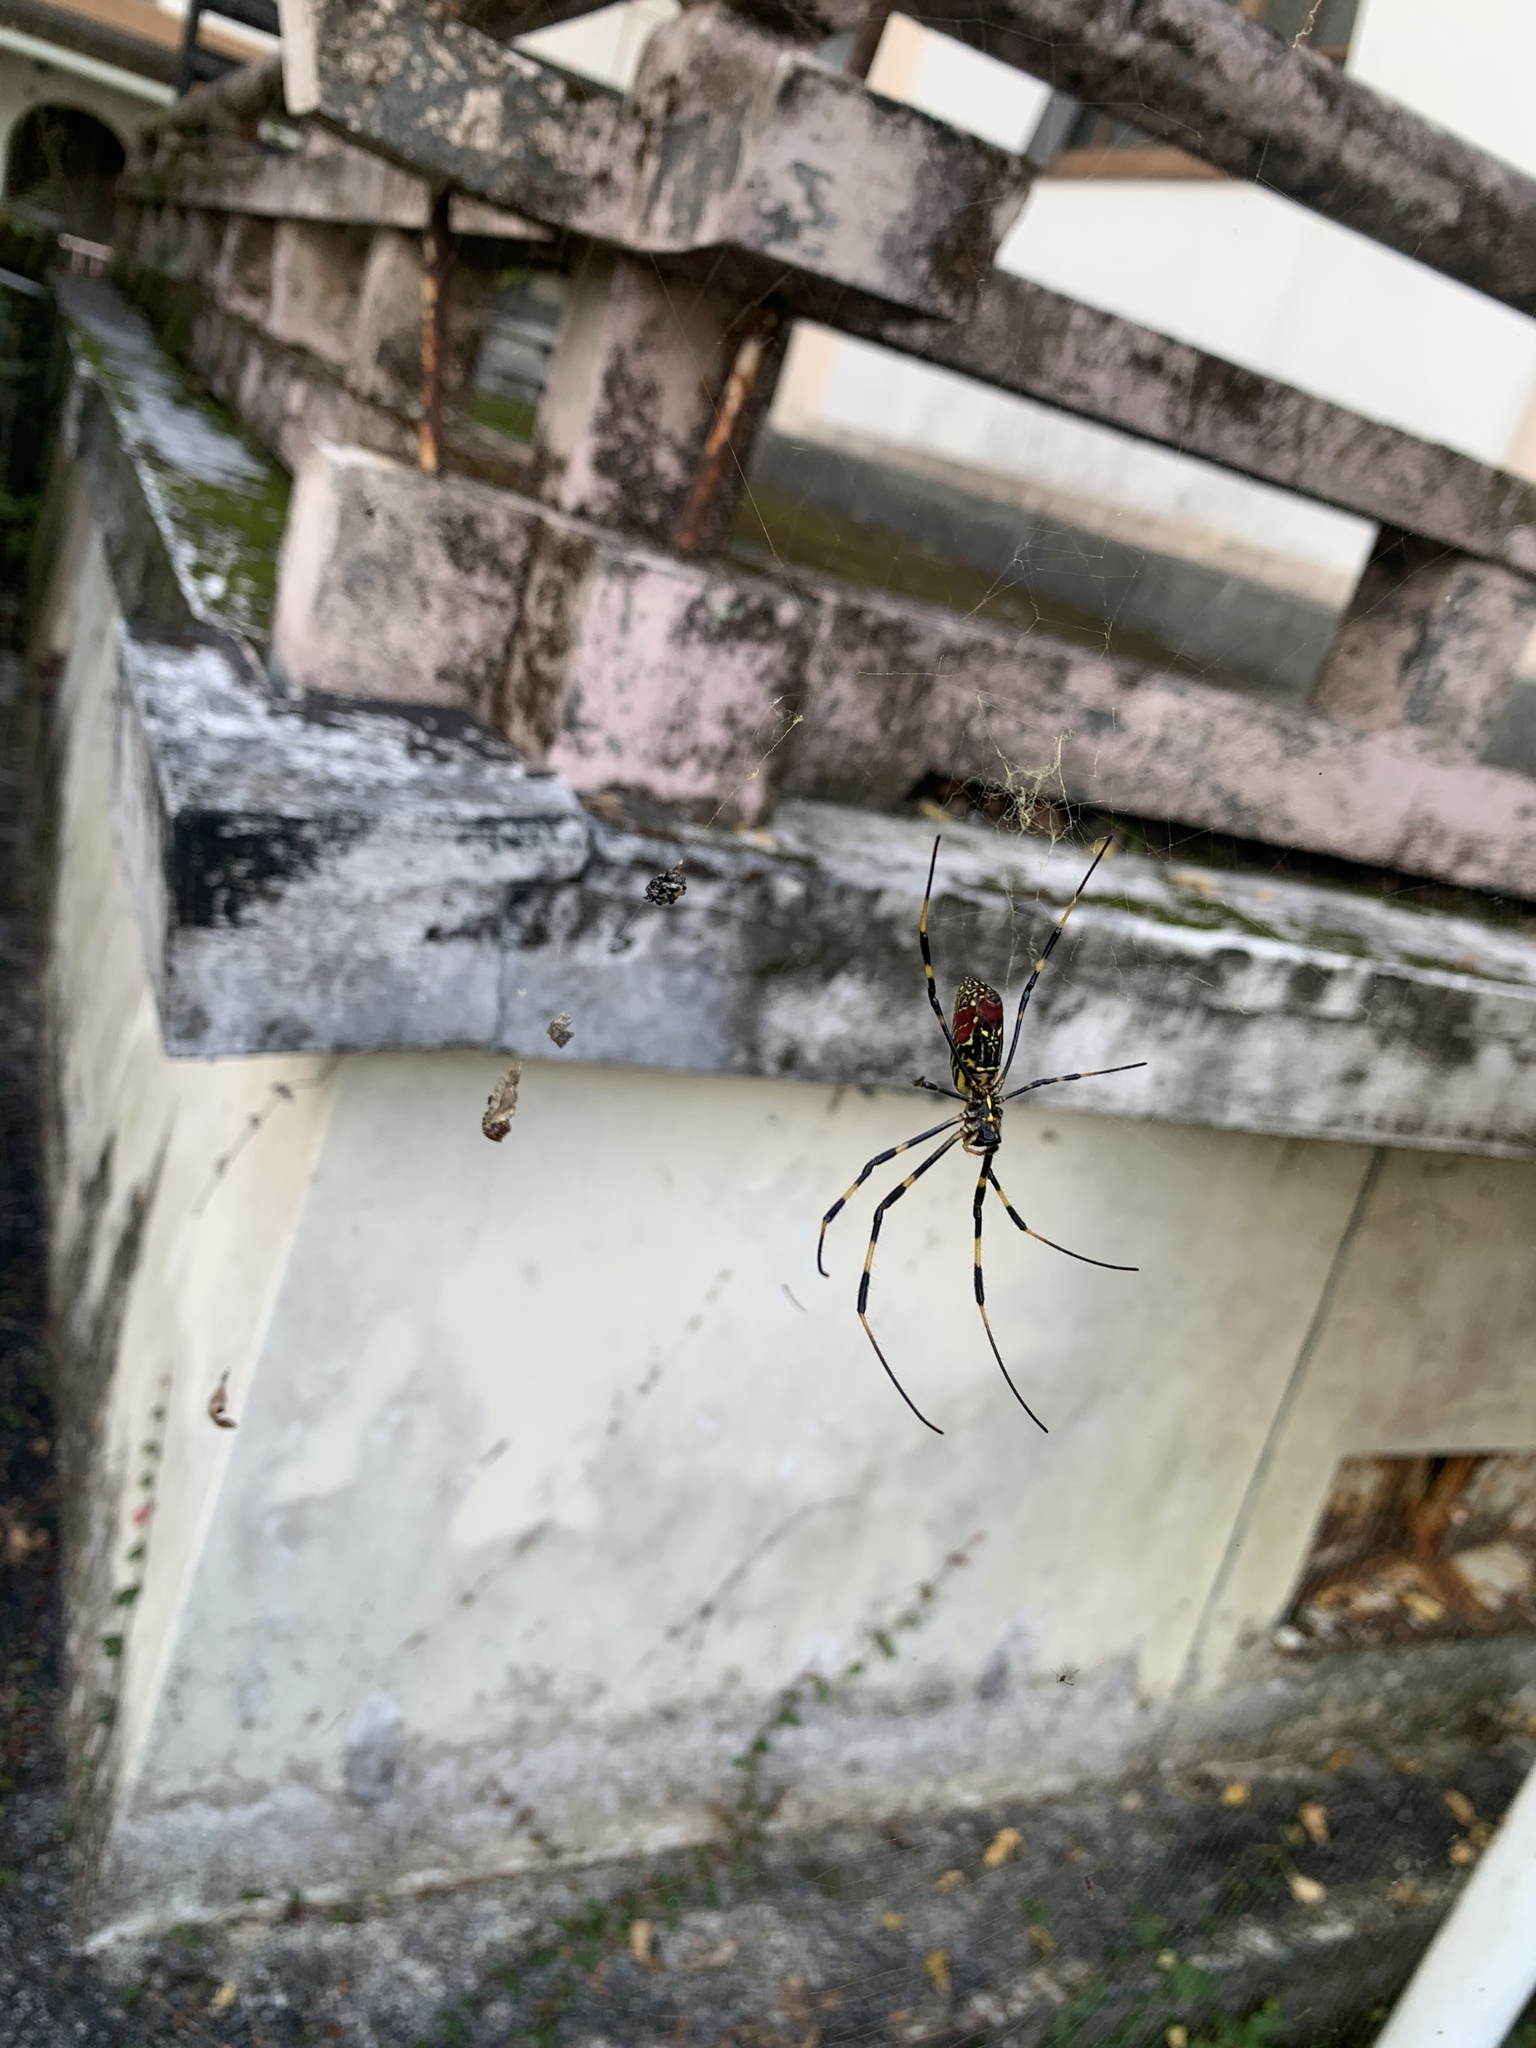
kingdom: Animalia
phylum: Arthropoda
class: Arachnida
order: Araneae
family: Araneidae
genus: Trichonephila
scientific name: Trichonephila clavata
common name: Jorō spider
